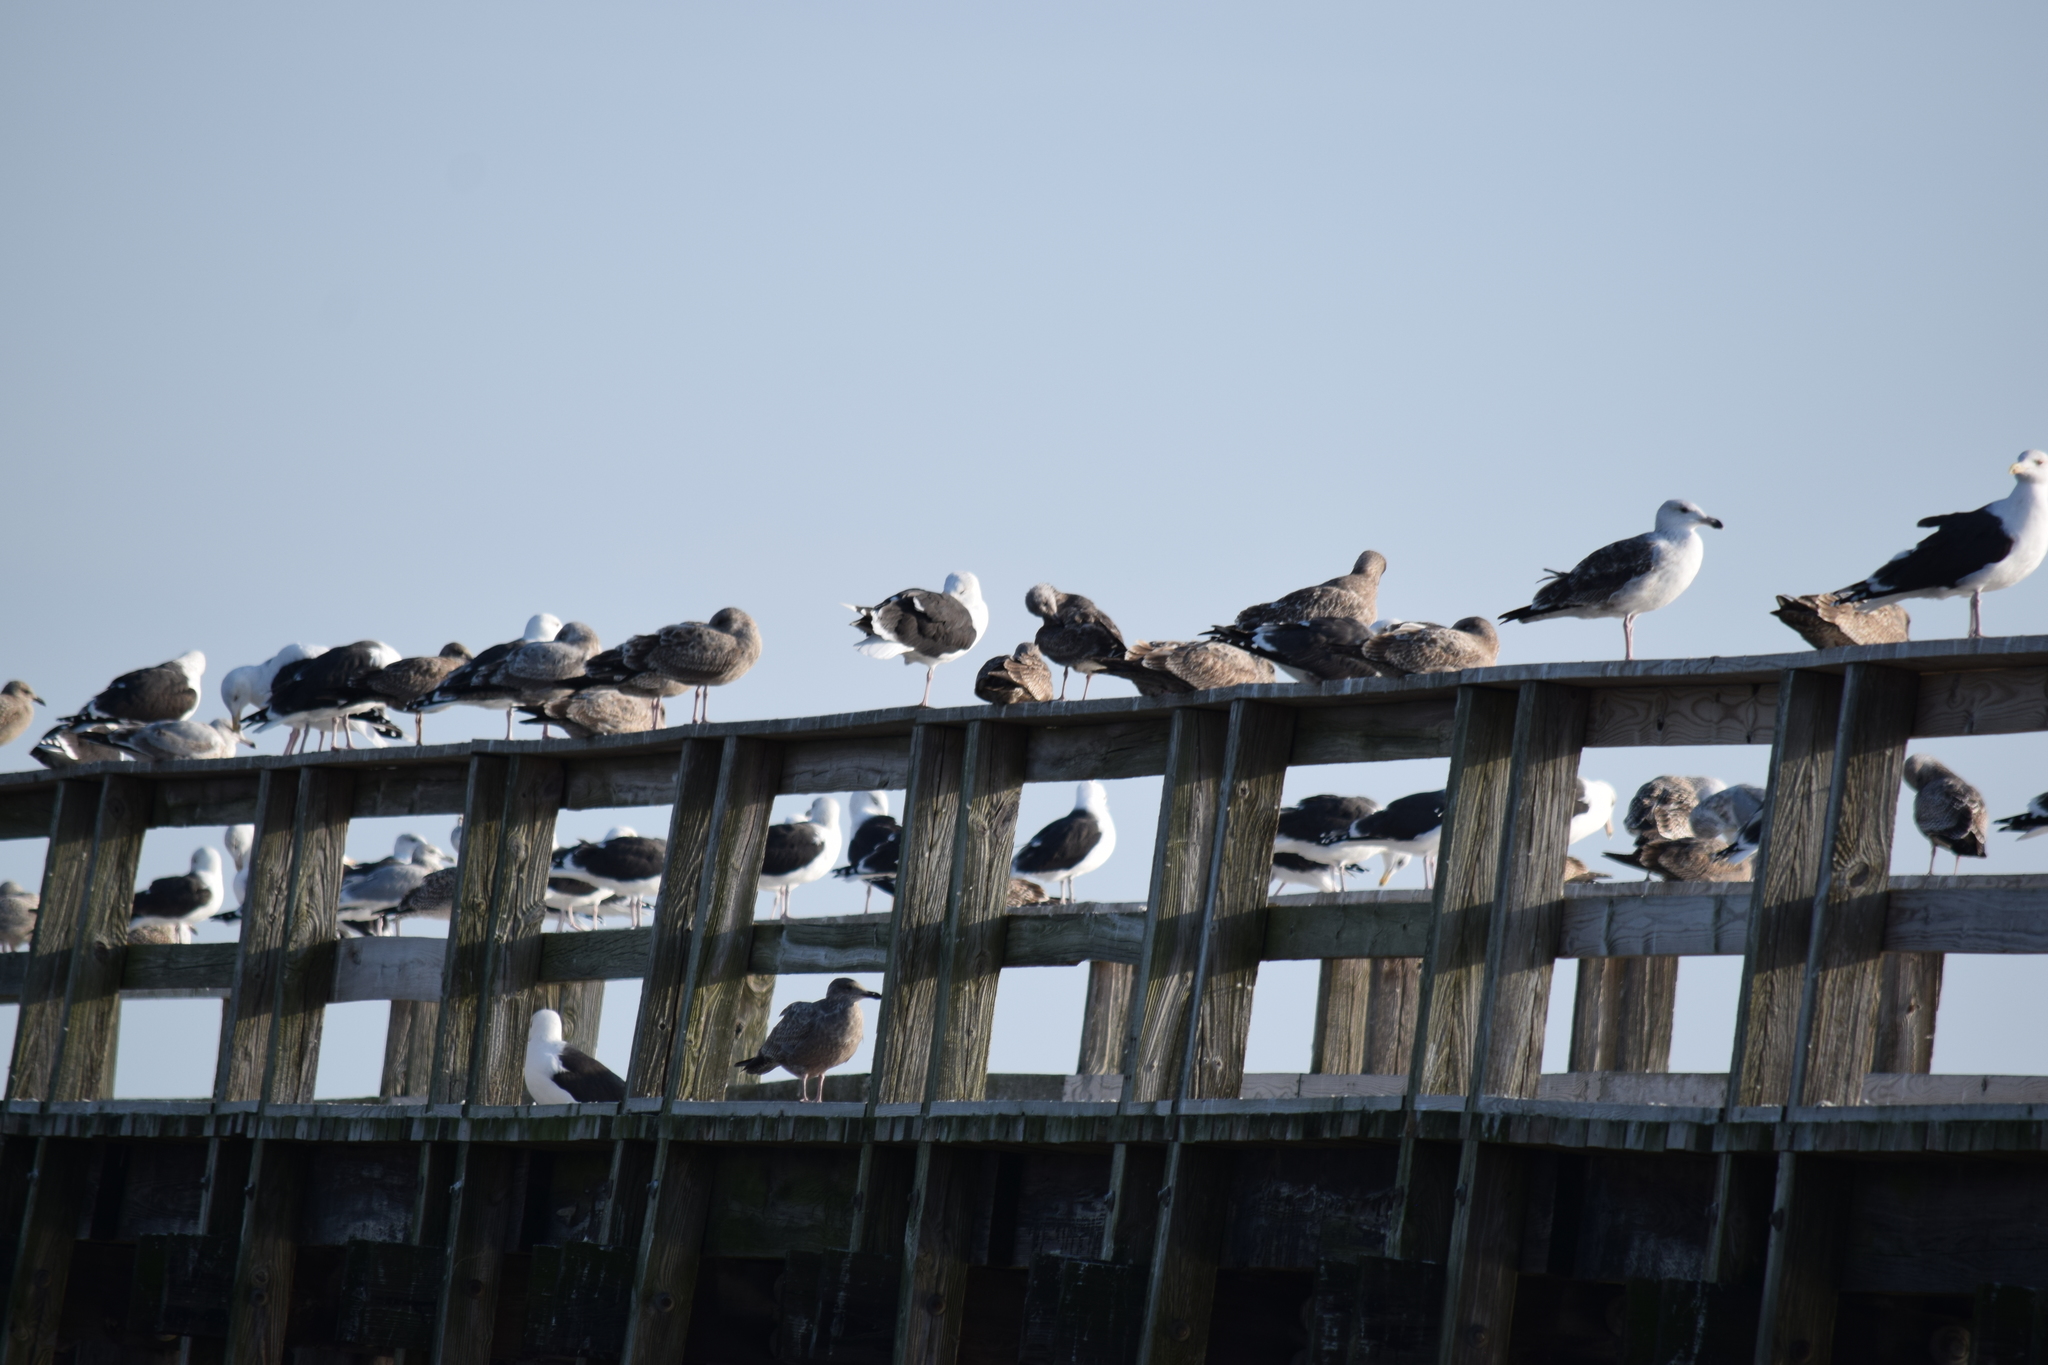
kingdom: Animalia
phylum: Chordata
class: Aves
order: Charadriiformes
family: Laridae
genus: Larus
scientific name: Larus marinus
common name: Great black-backed gull
